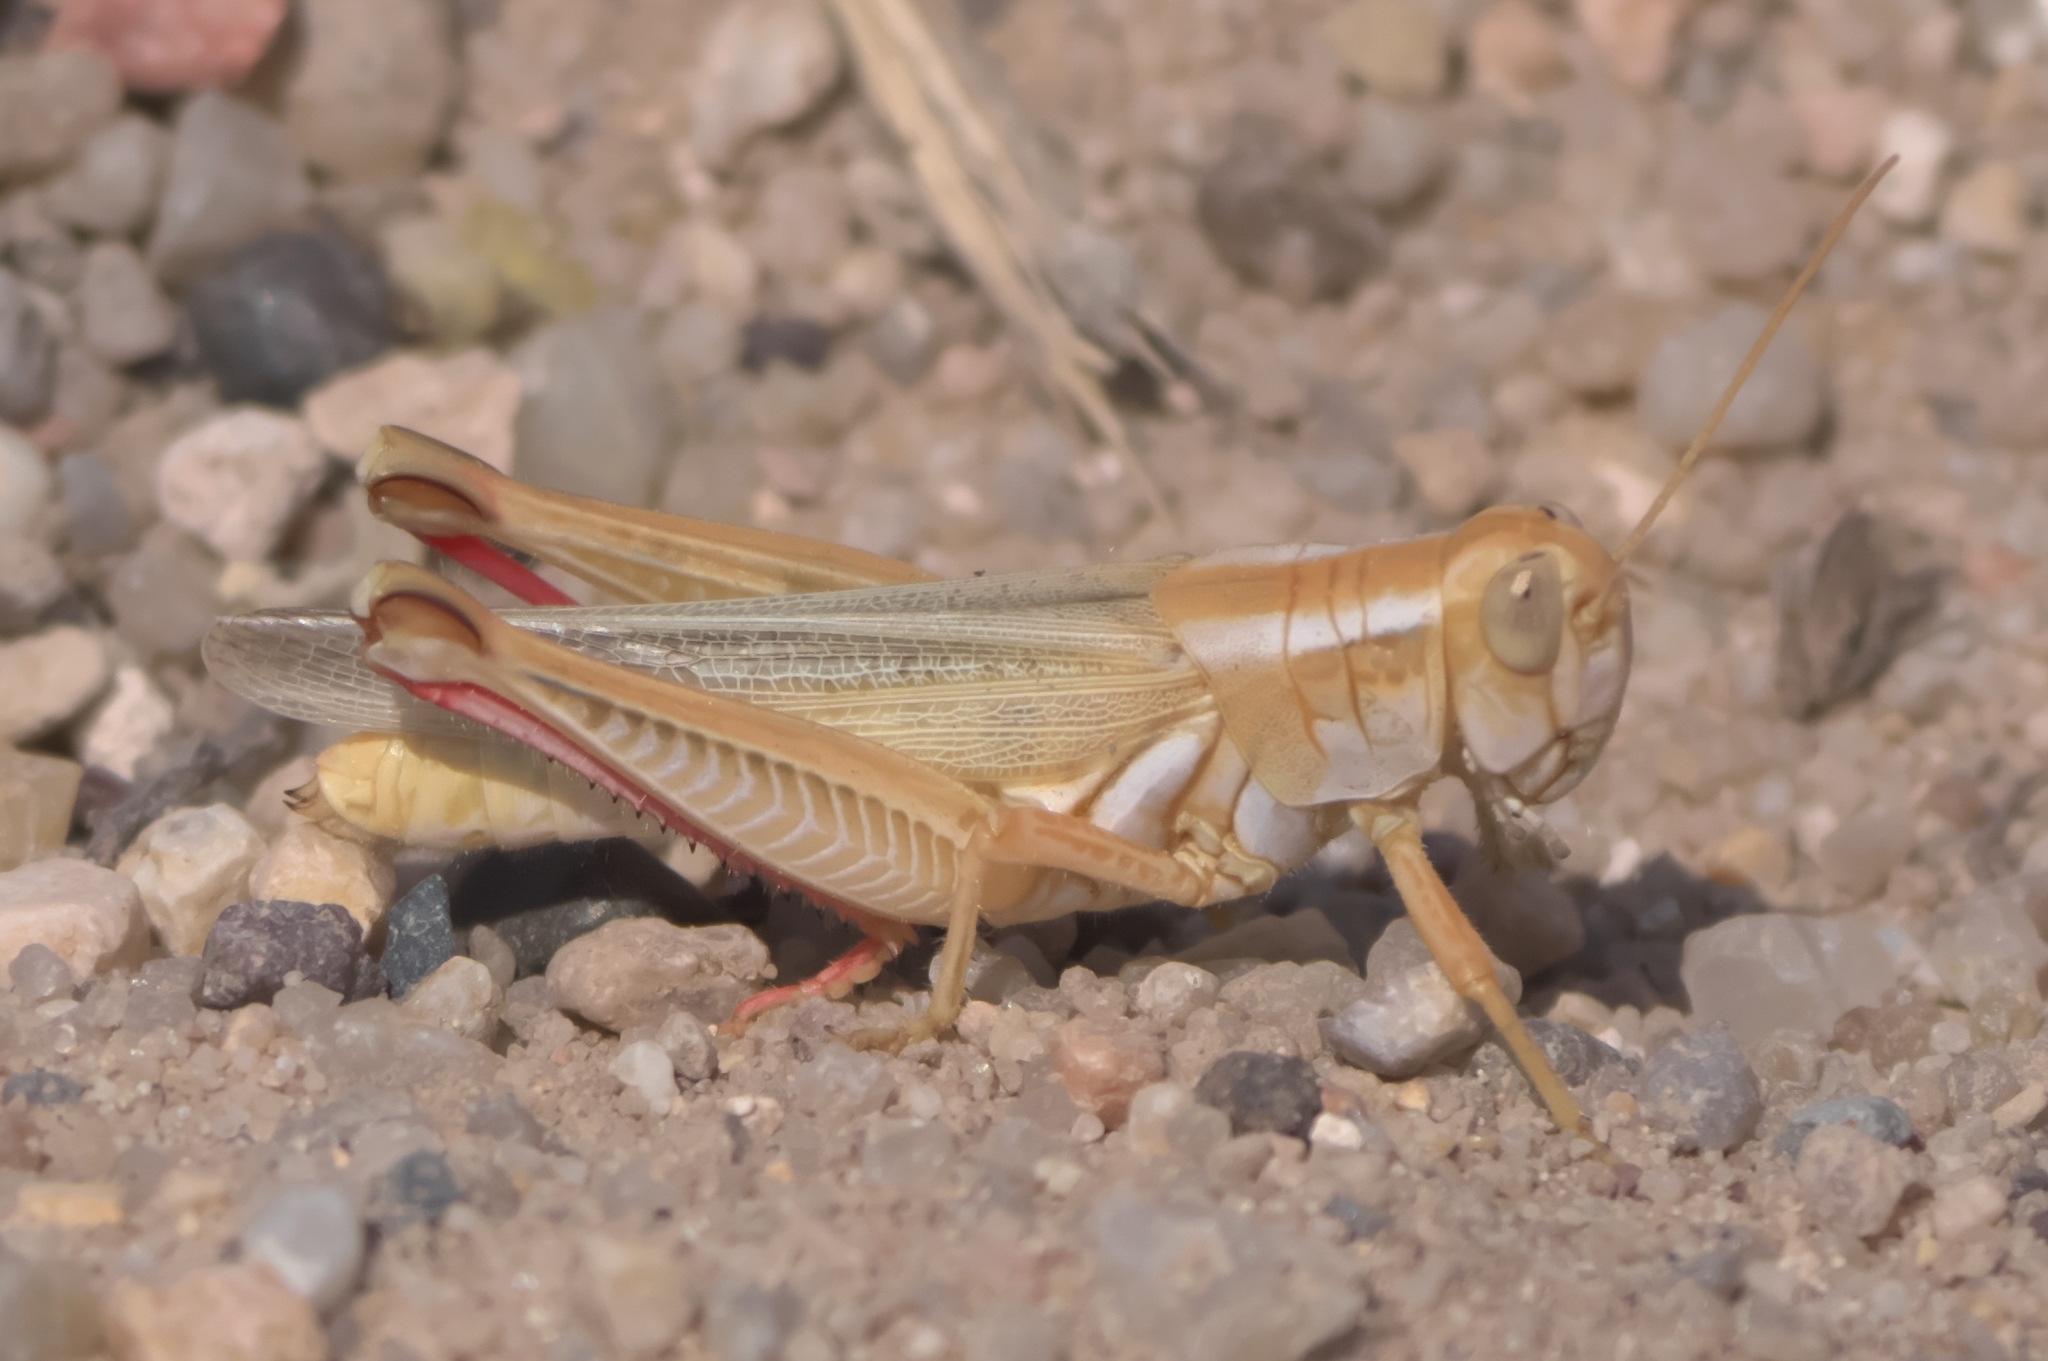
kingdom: Animalia
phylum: Arthropoda
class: Insecta
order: Orthoptera
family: Acrididae
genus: Melanoplus
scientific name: Melanoplus foedus
